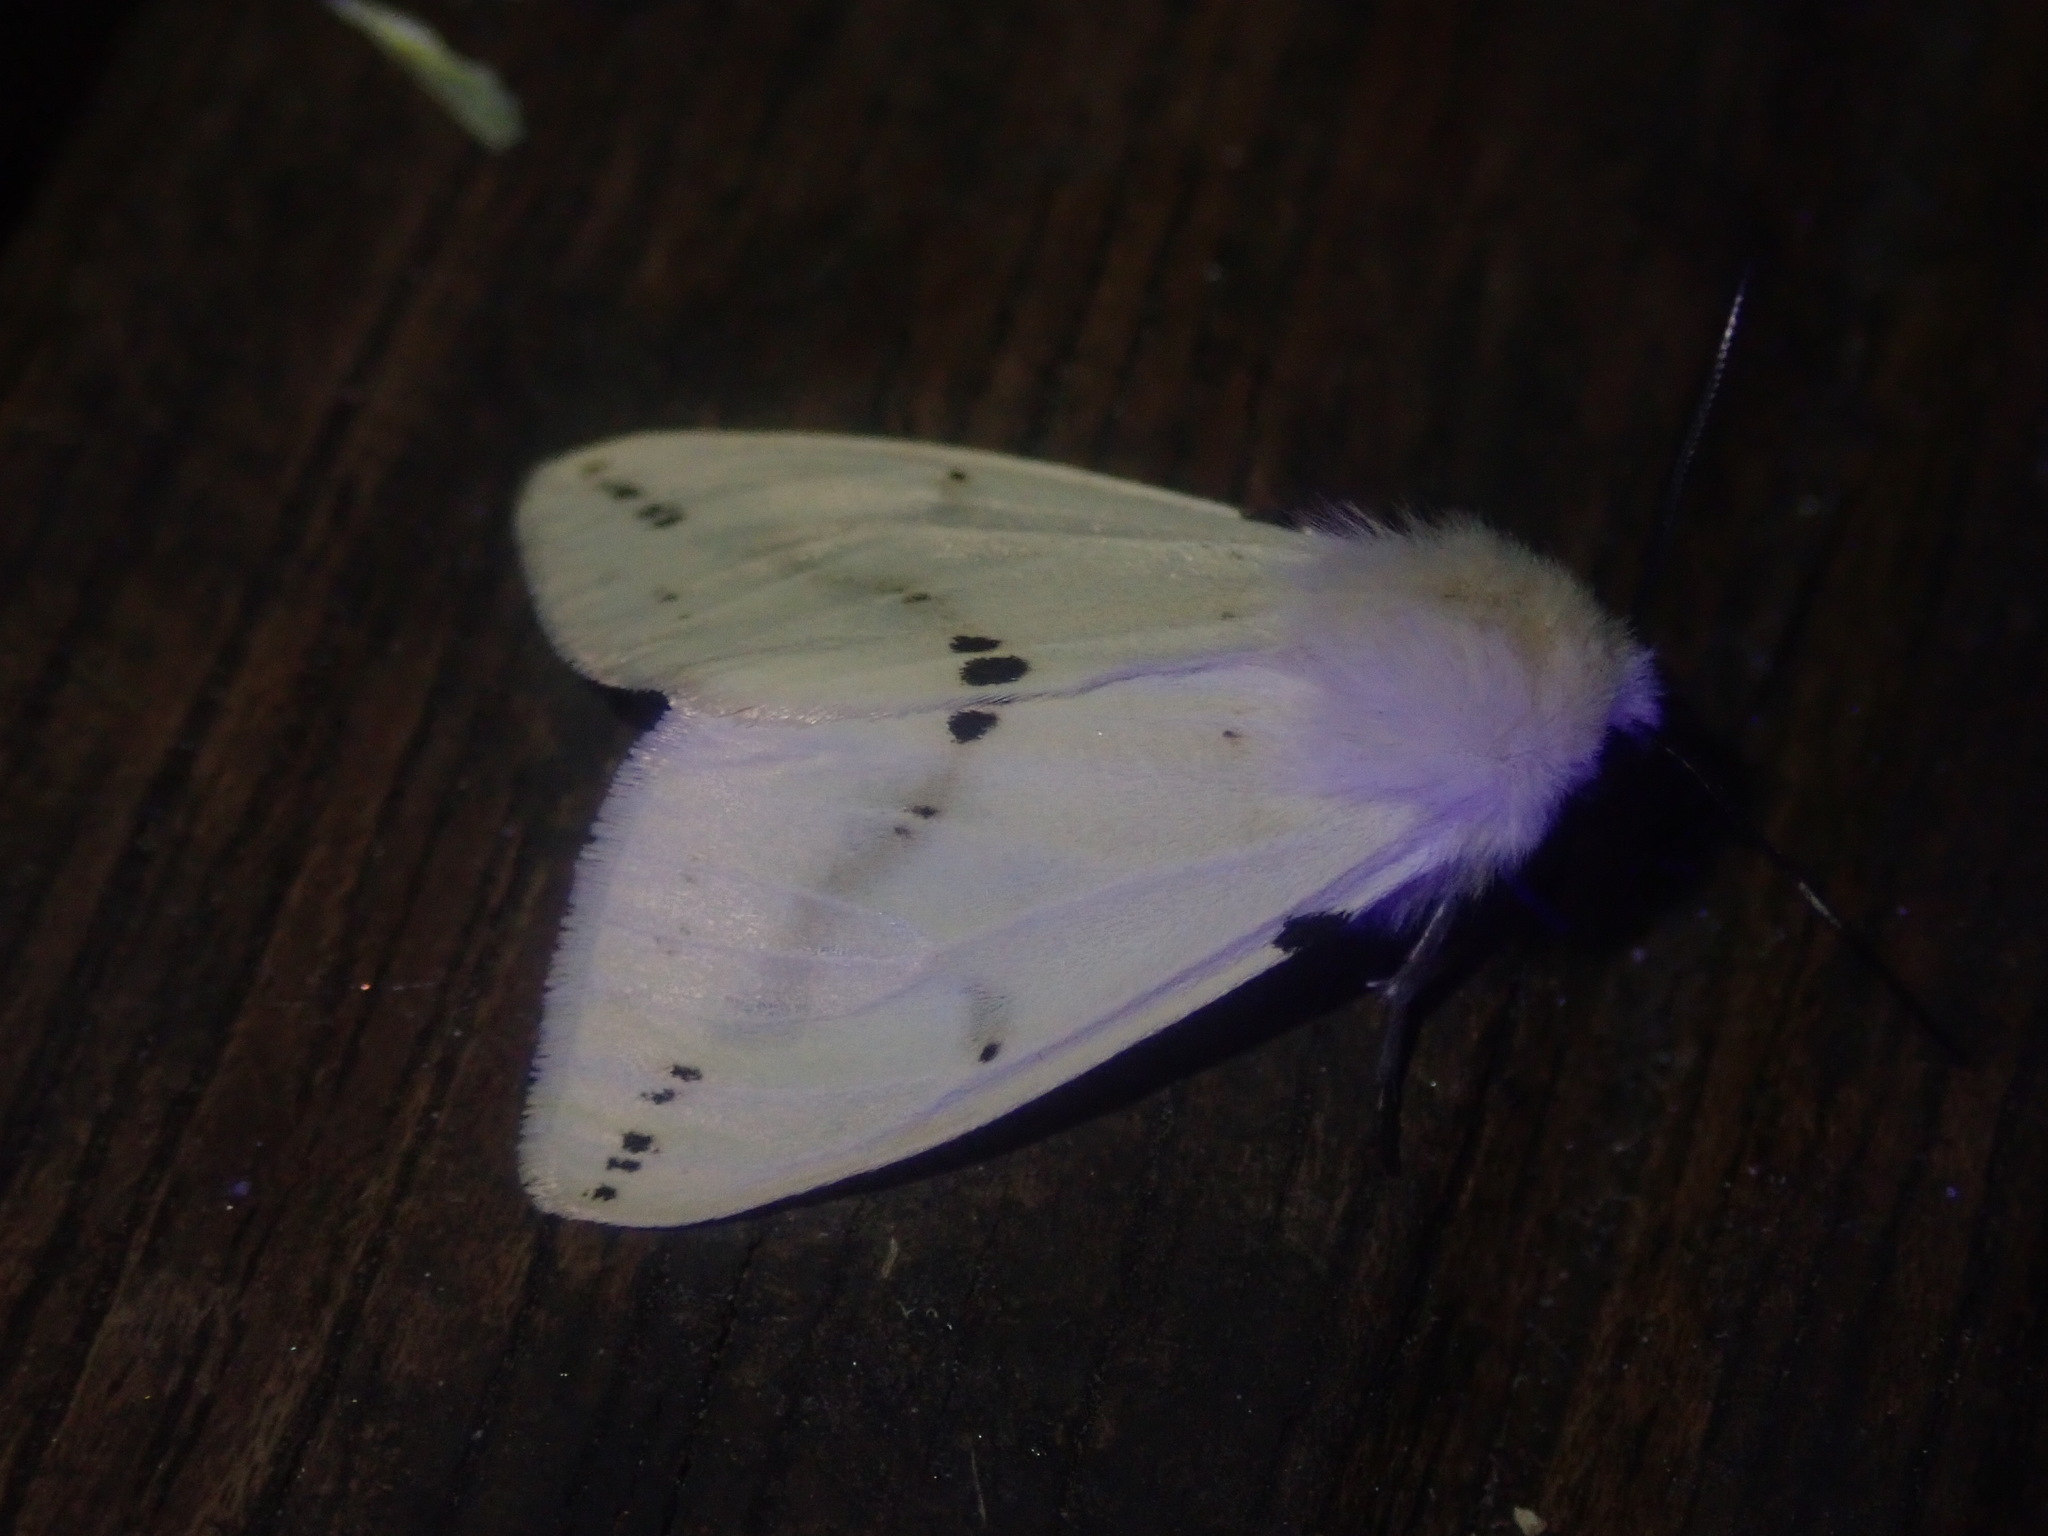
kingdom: Animalia
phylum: Arthropoda
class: Insecta
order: Lepidoptera
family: Erebidae
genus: Spilarctia
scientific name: Spilarctia lutea
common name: Buff ermine
